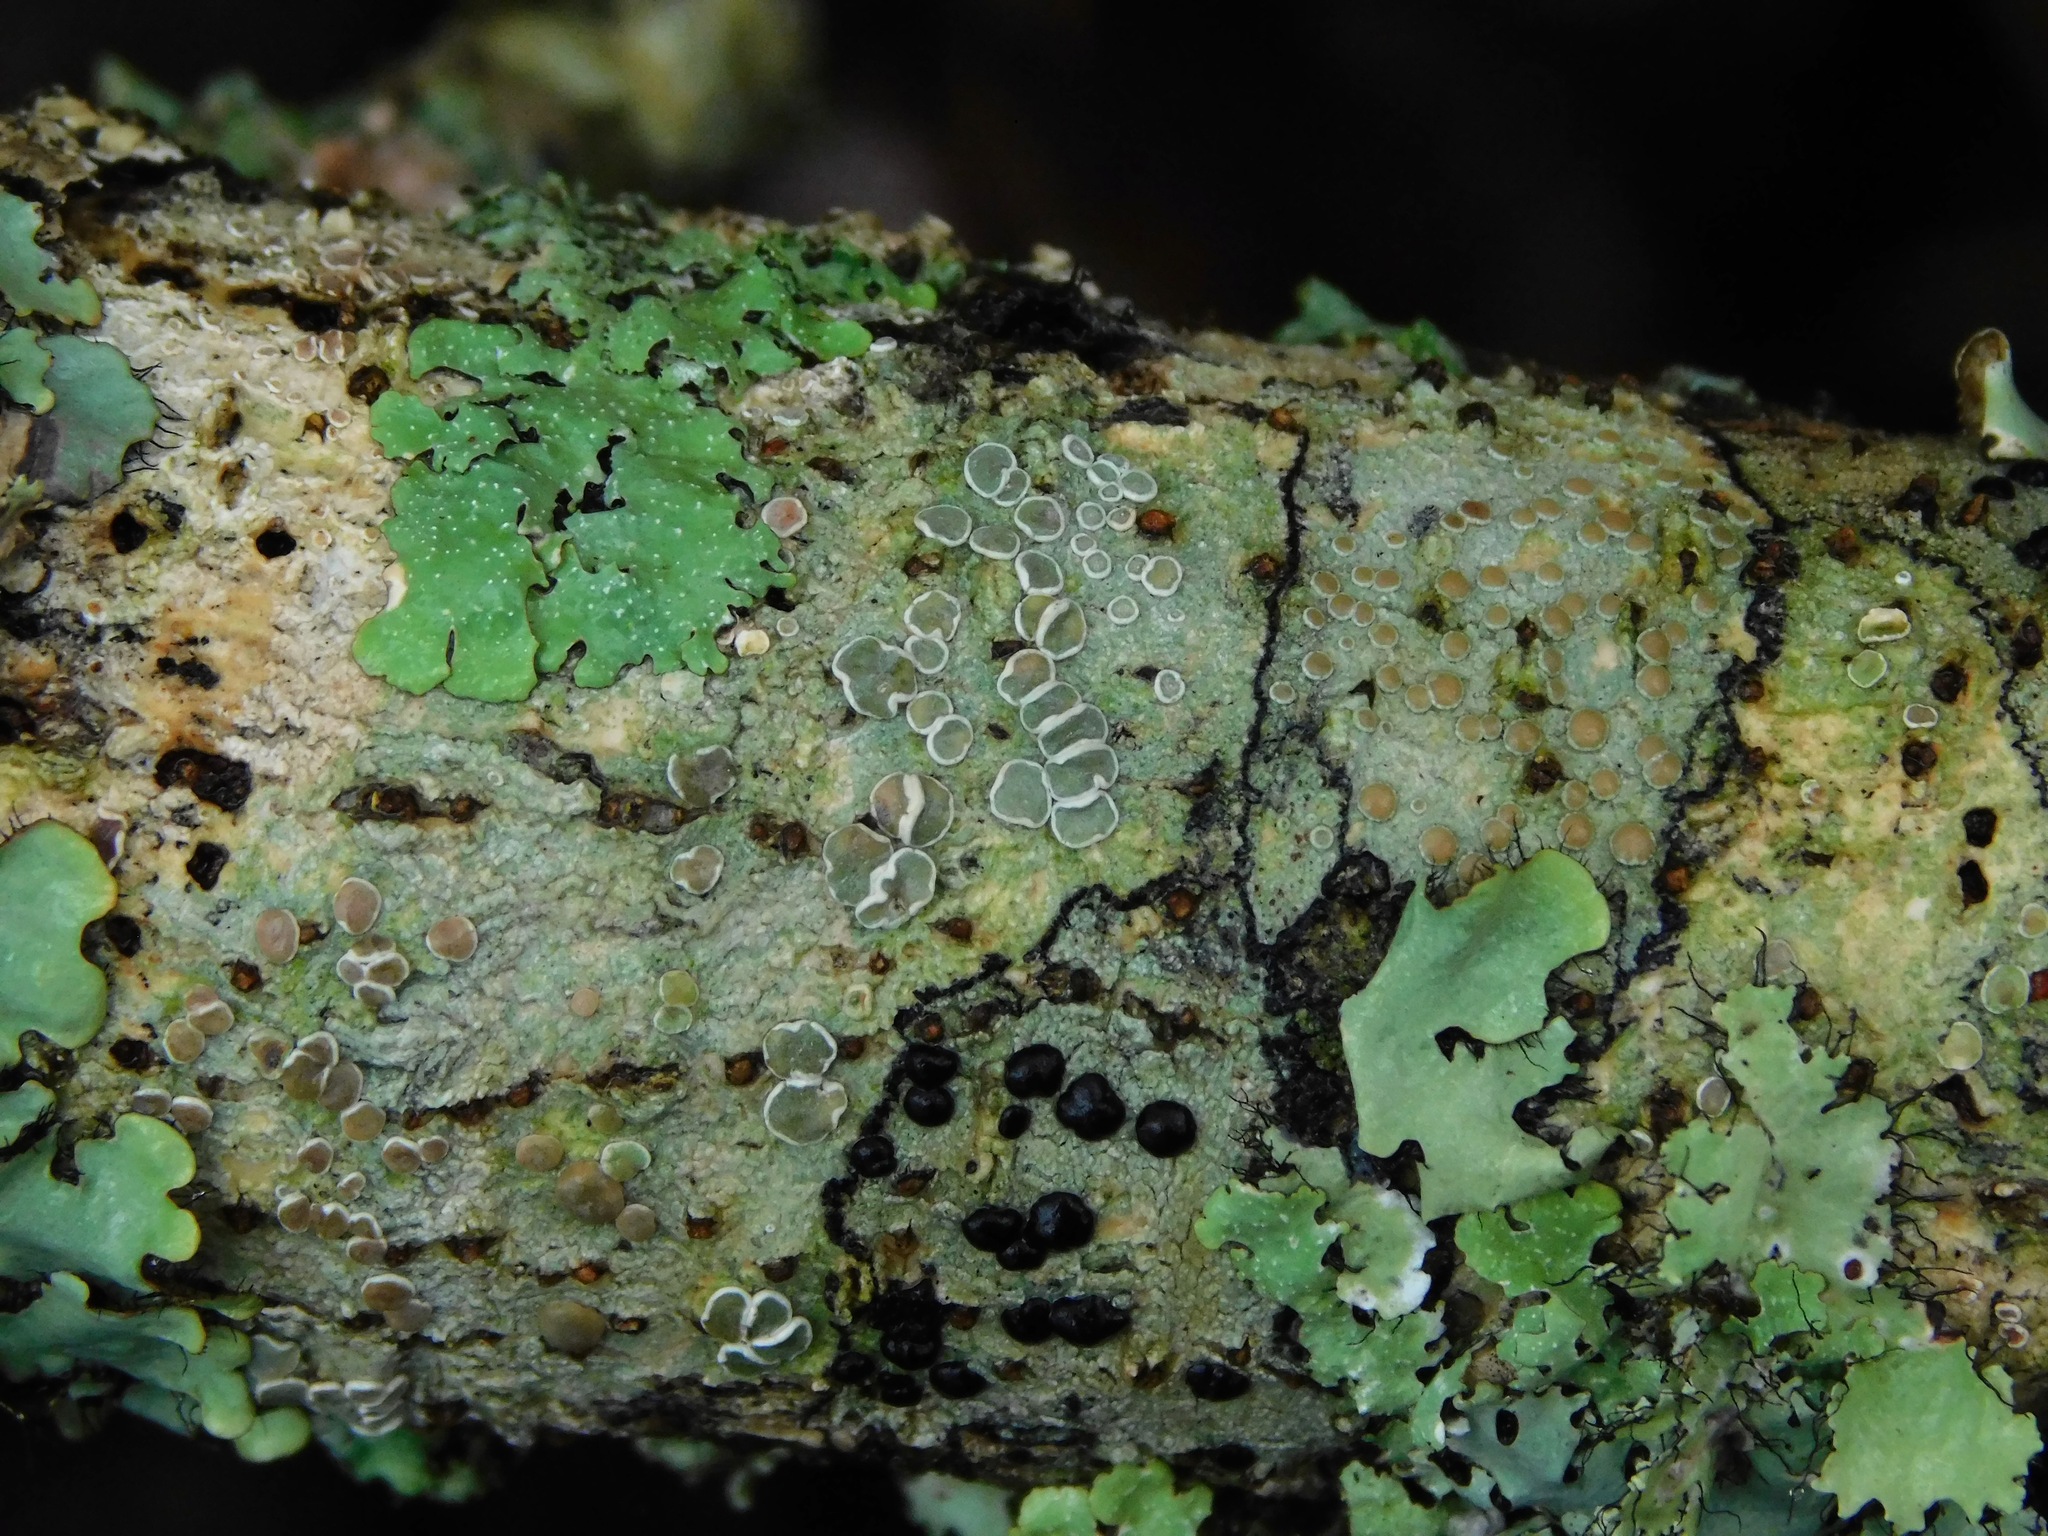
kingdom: Fungi
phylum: Ascomycota
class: Lecanoromycetes
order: Lecanorales
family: Lecanoraceae
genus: Lecanora
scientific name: Lecanora protervula
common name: Lesser dust my discs
